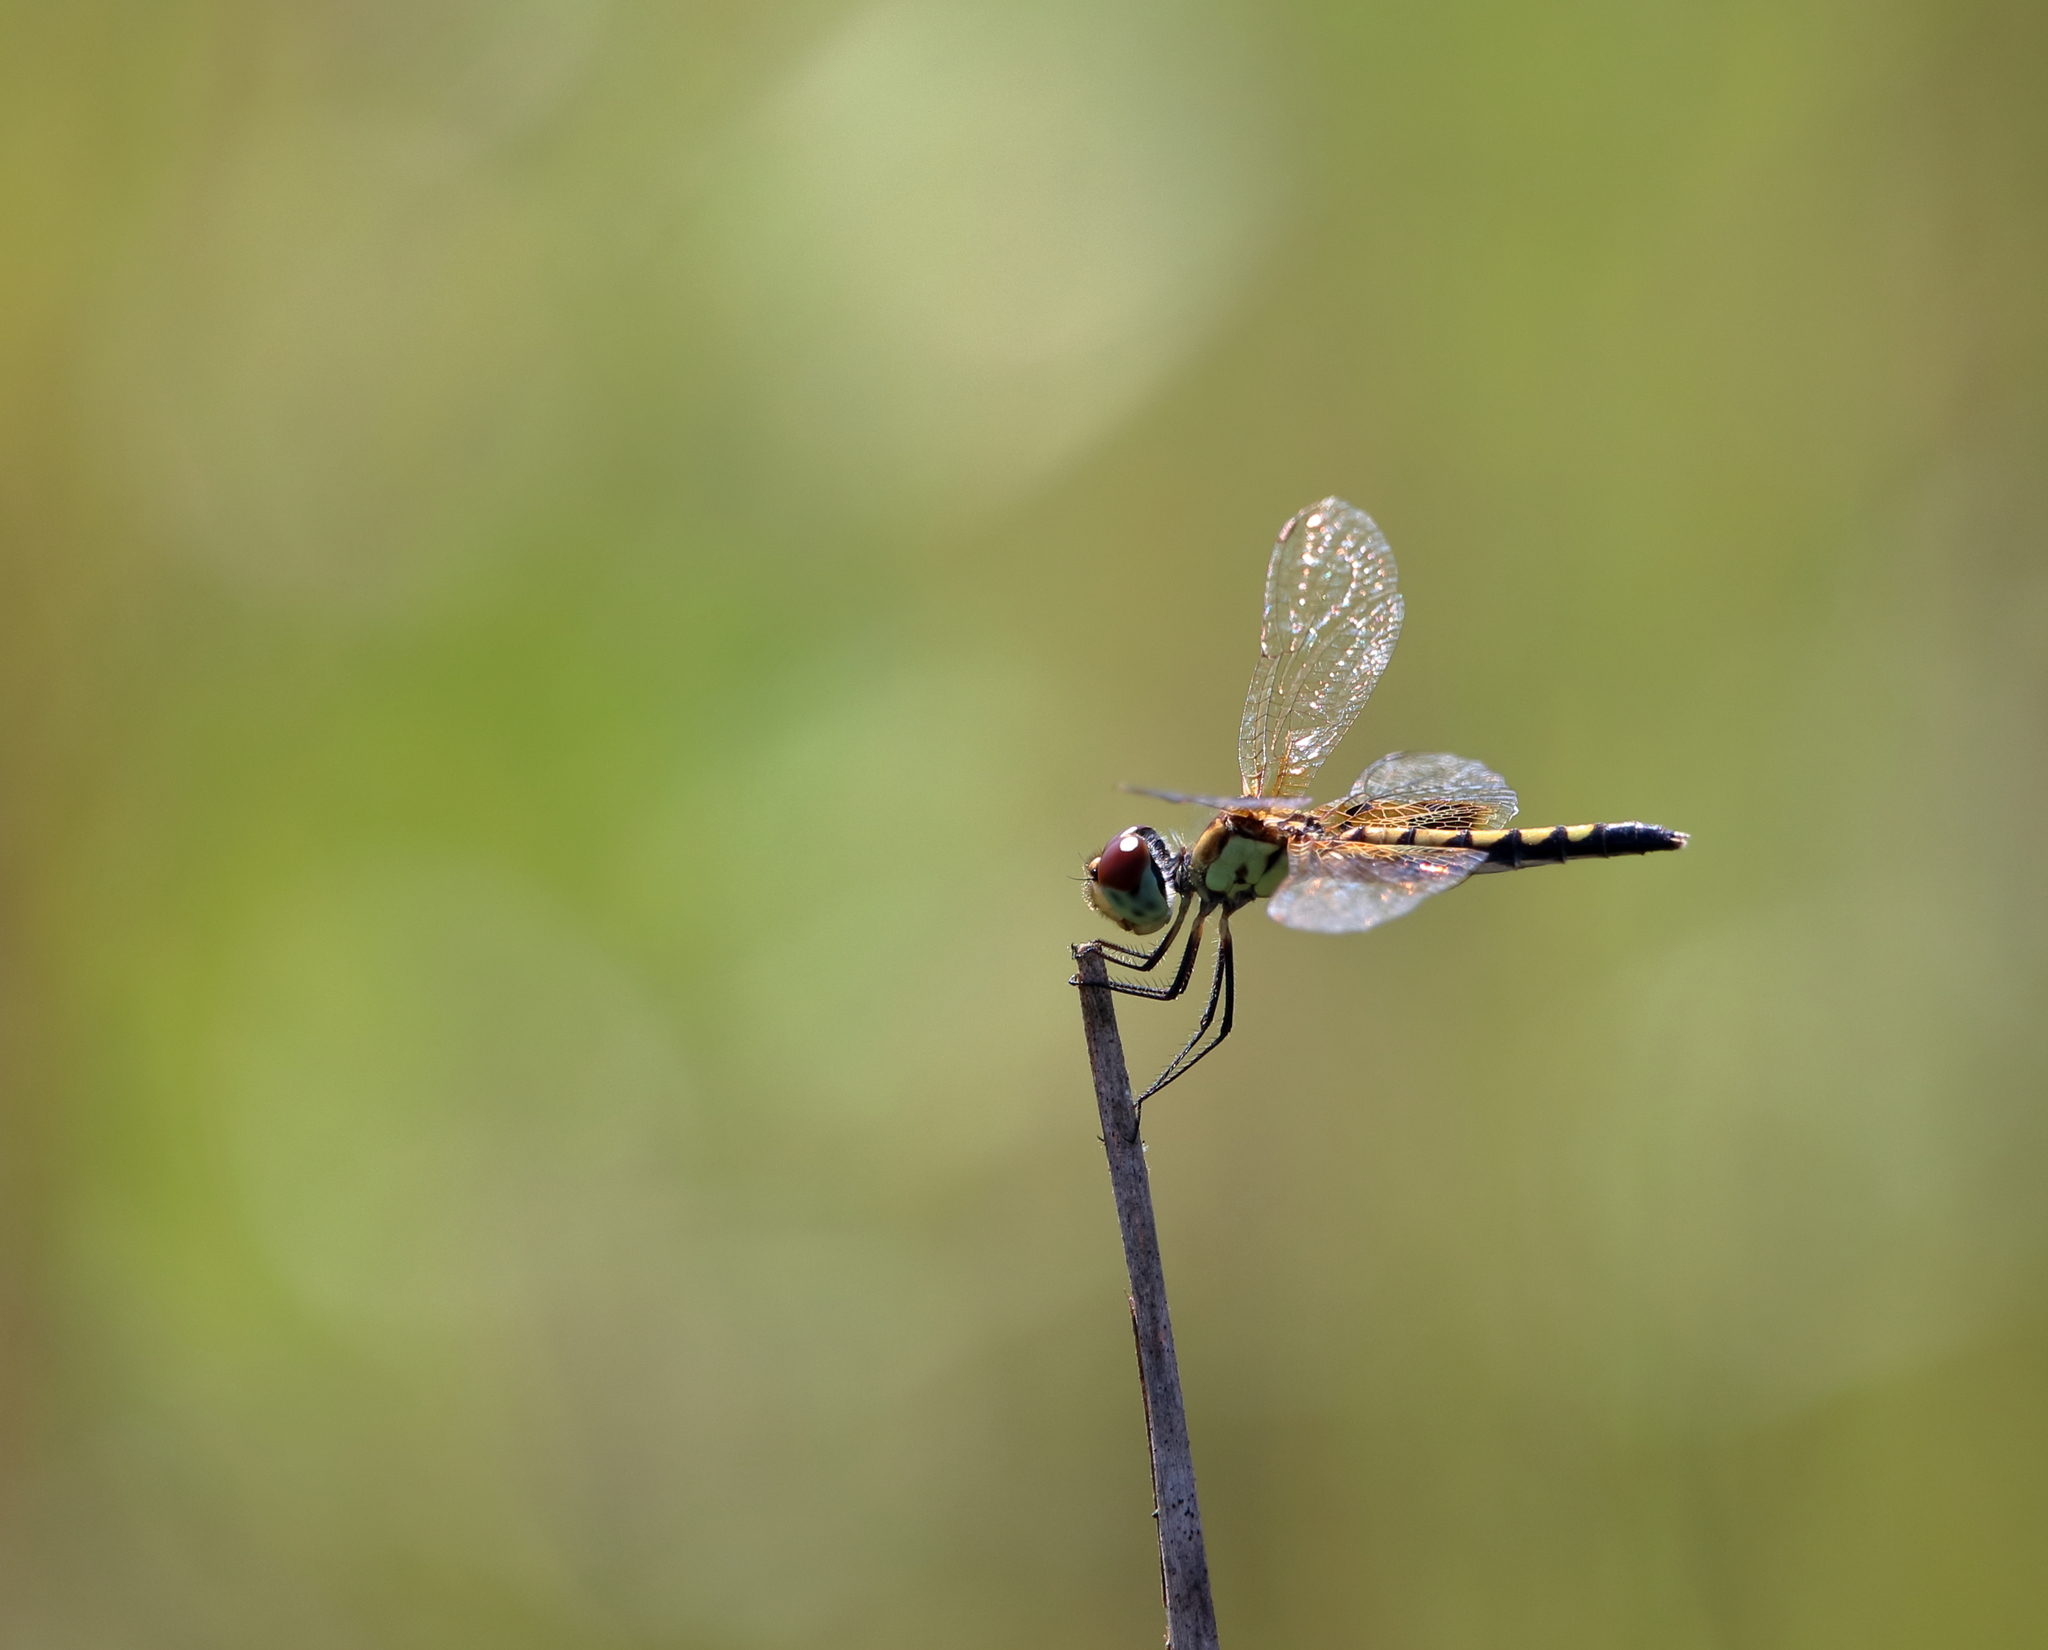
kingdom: Animalia
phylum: Arthropoda
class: Insecta
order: Odonata
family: Libellulidae
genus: Celithemis
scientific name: Celithemis amanda
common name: Amanda's pennant
